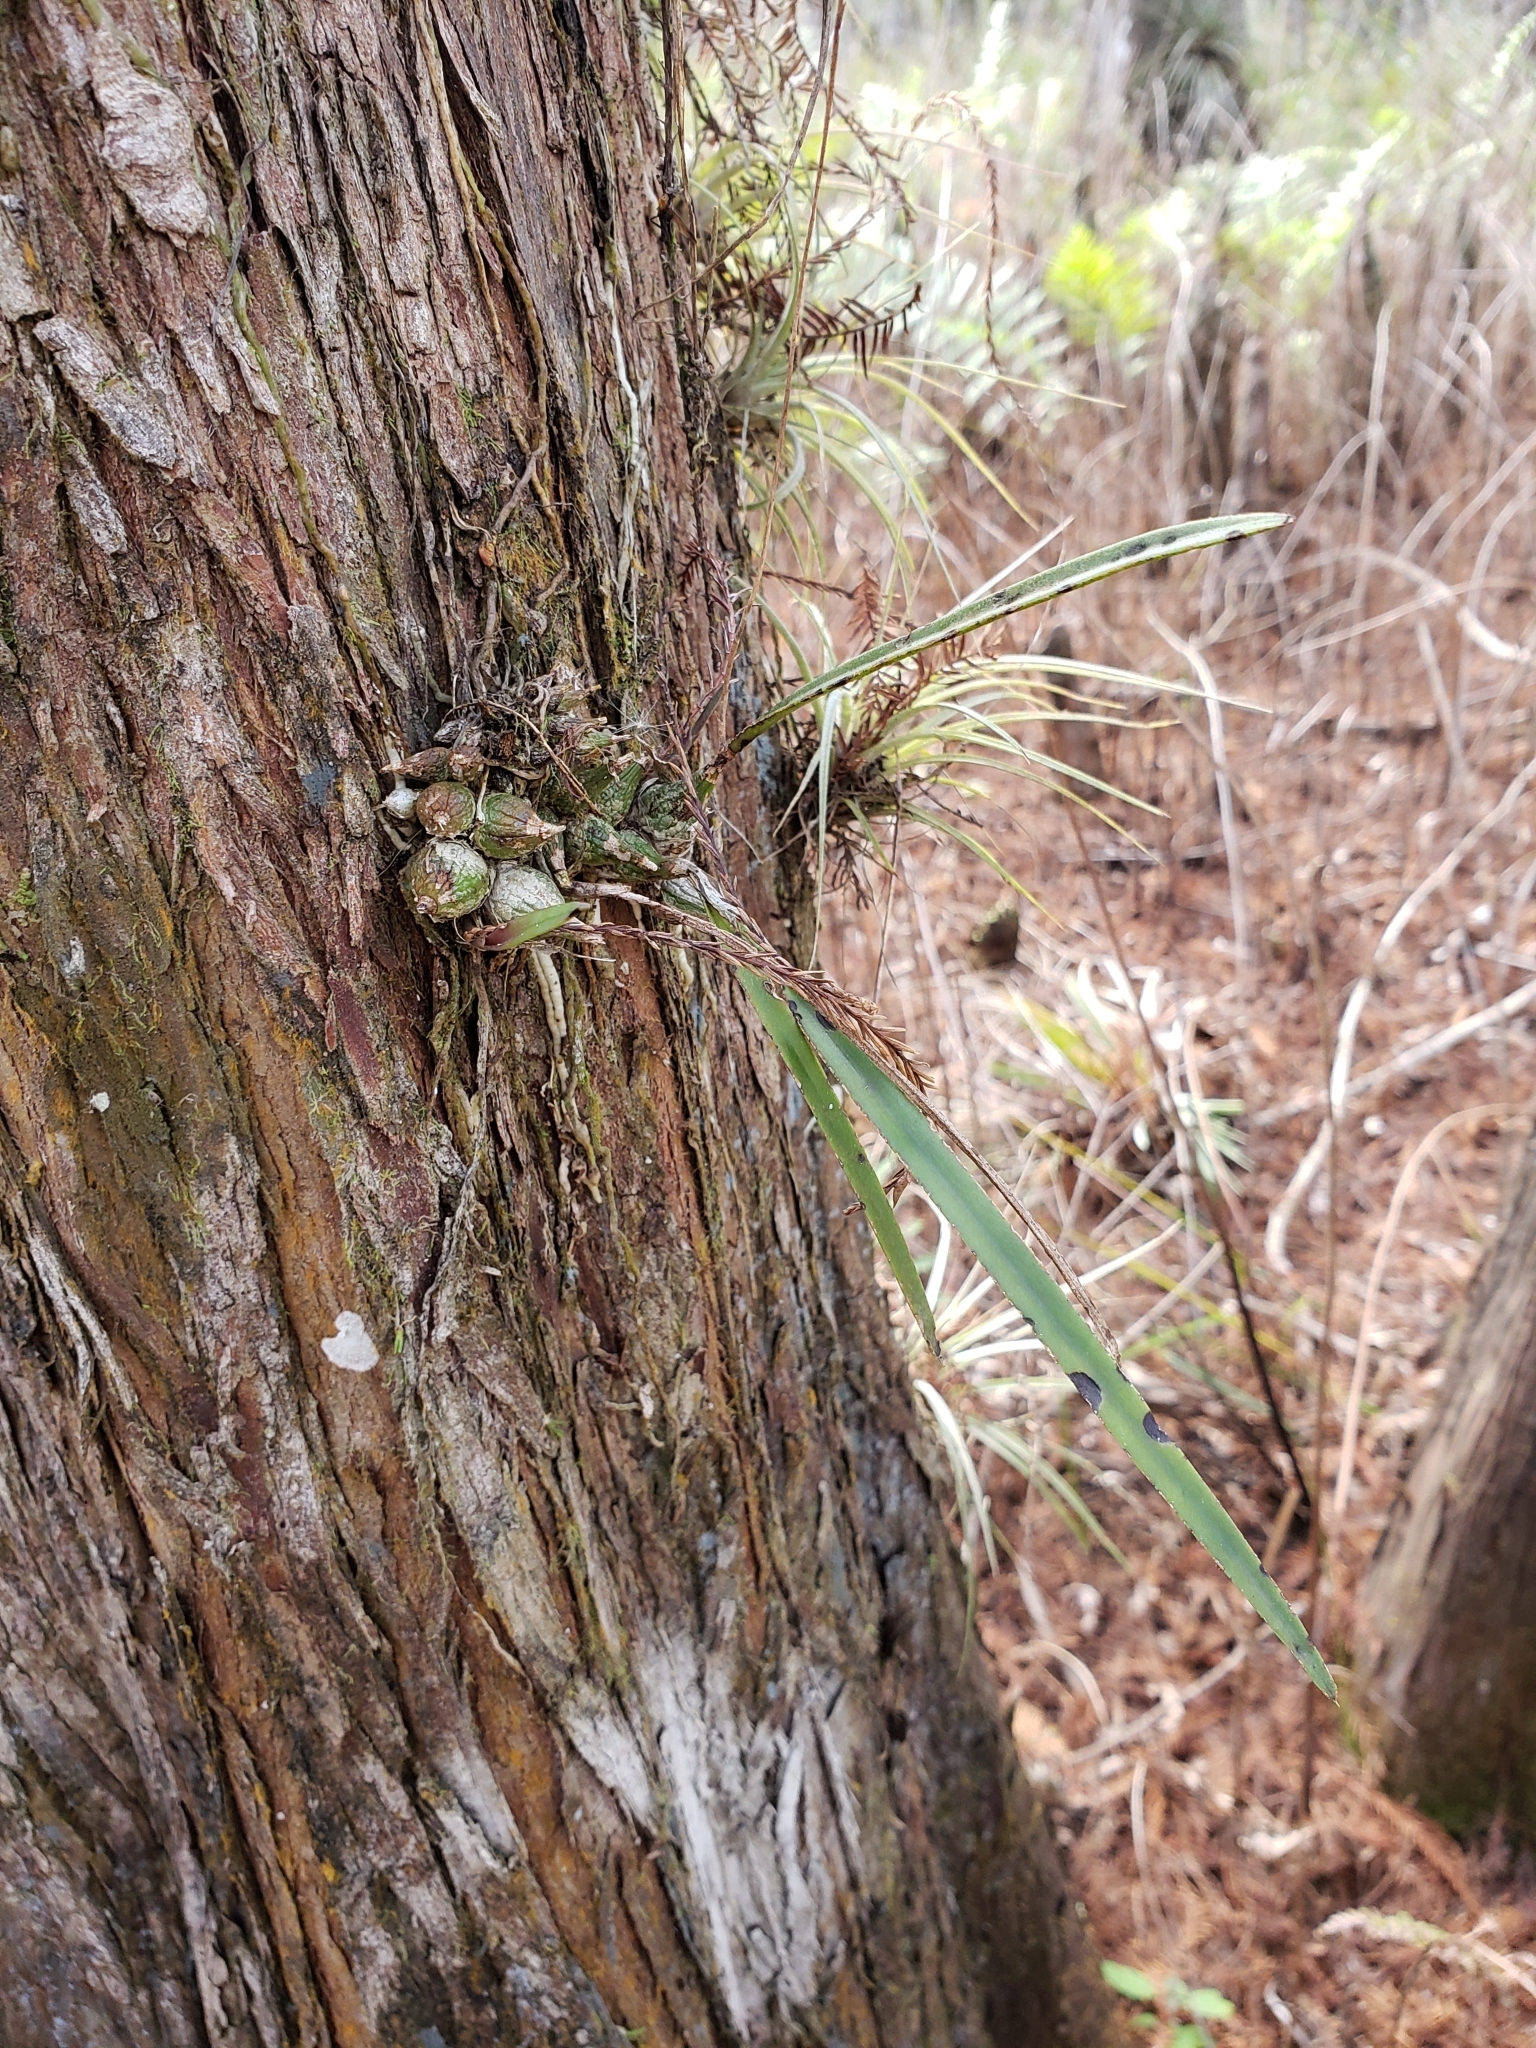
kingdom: Plantae
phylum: Tracheophyta
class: Liliopsida
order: Asparagales
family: Orchidaceae
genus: Encyclia
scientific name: Encyclia tampensis
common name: Florida butterfly orchid
